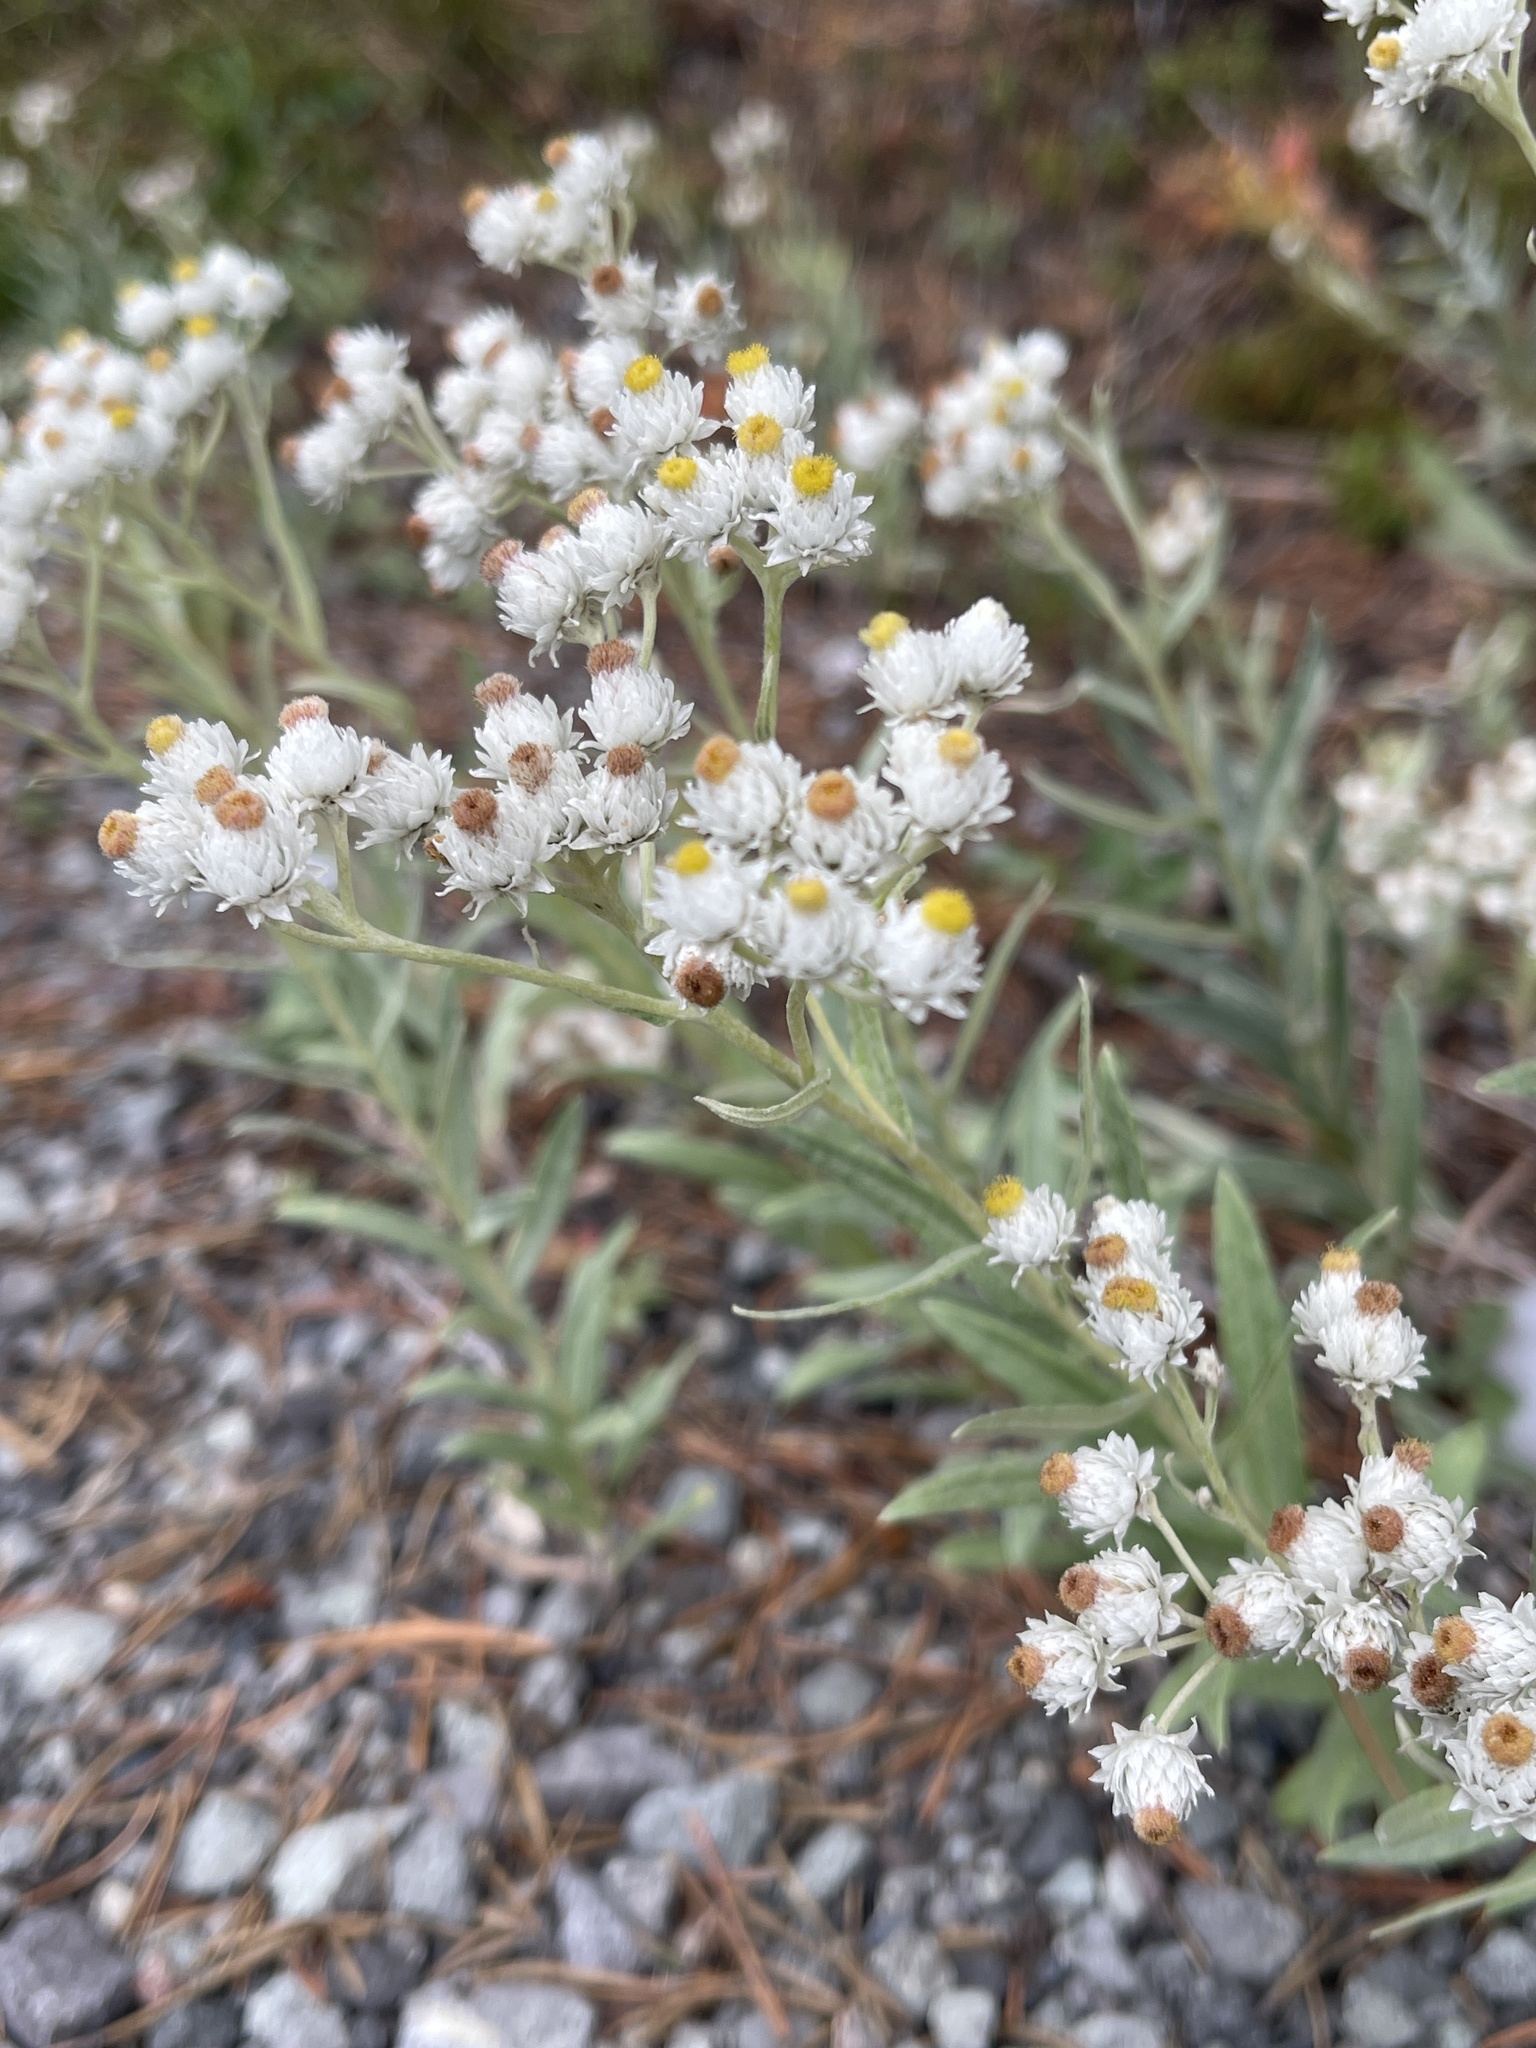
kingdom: Plantae
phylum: Tracheophyta
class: Magnoliopsida
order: Asterales
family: Asteraceae
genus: Anaphalis
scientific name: Anaphalis margaritacea
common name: Pearly everlasting
